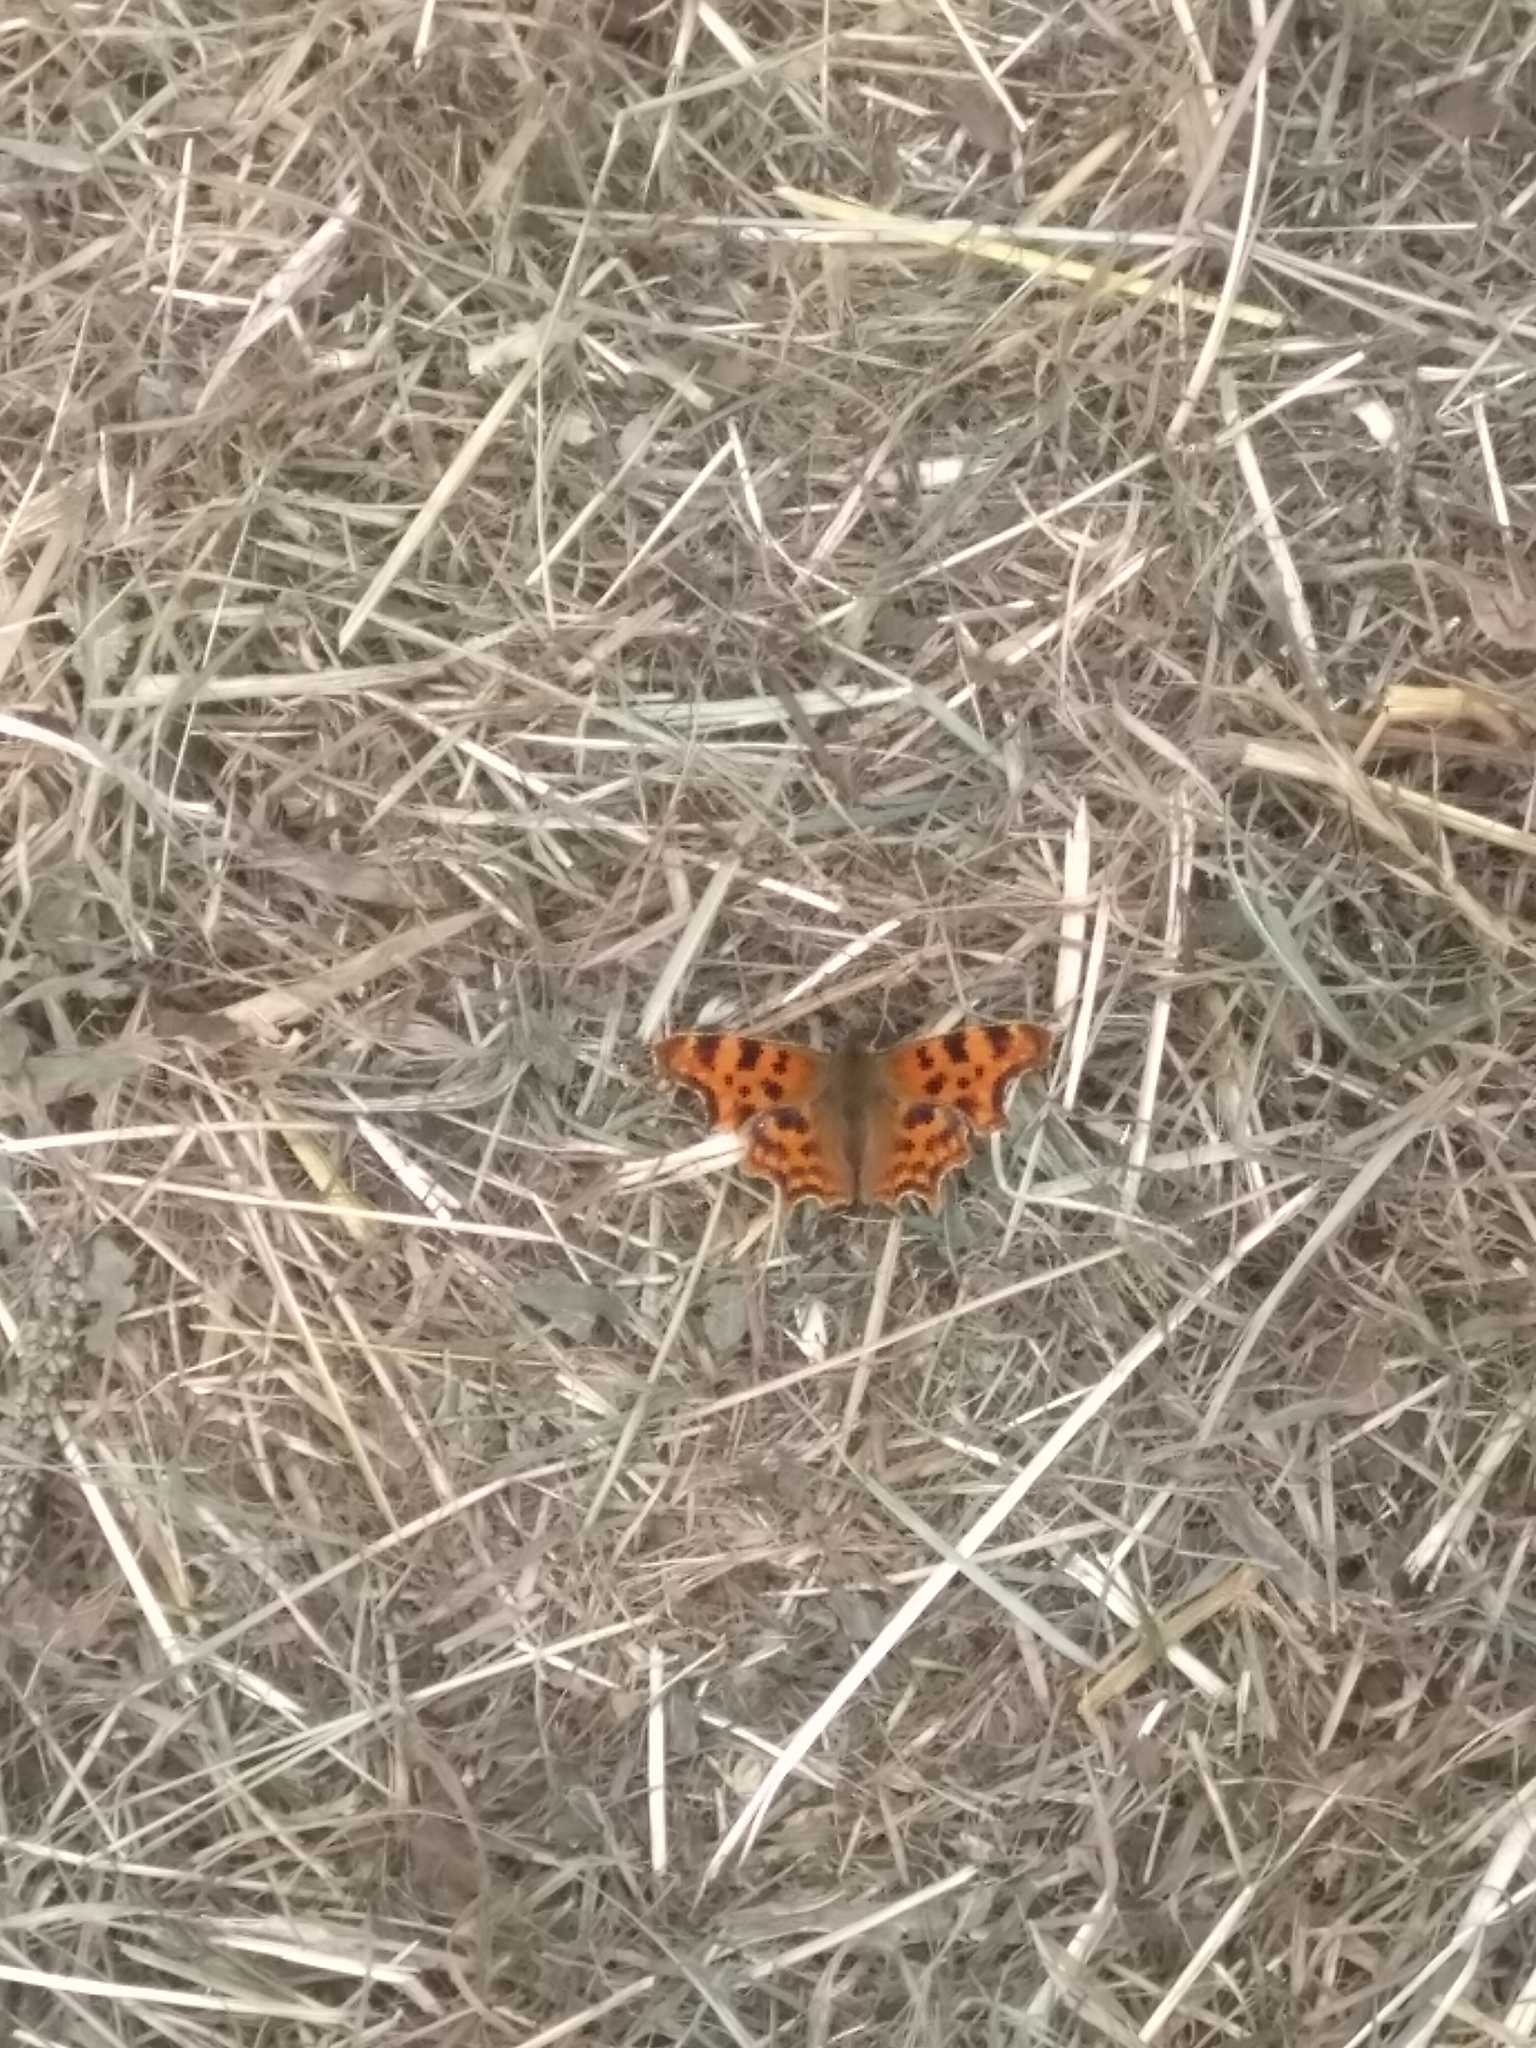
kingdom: Animalia
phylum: Arthropoda
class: Insecta
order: Lepidoptera
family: Nymphalidae
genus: Polygonia
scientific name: Polygonia c-album
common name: Comma
